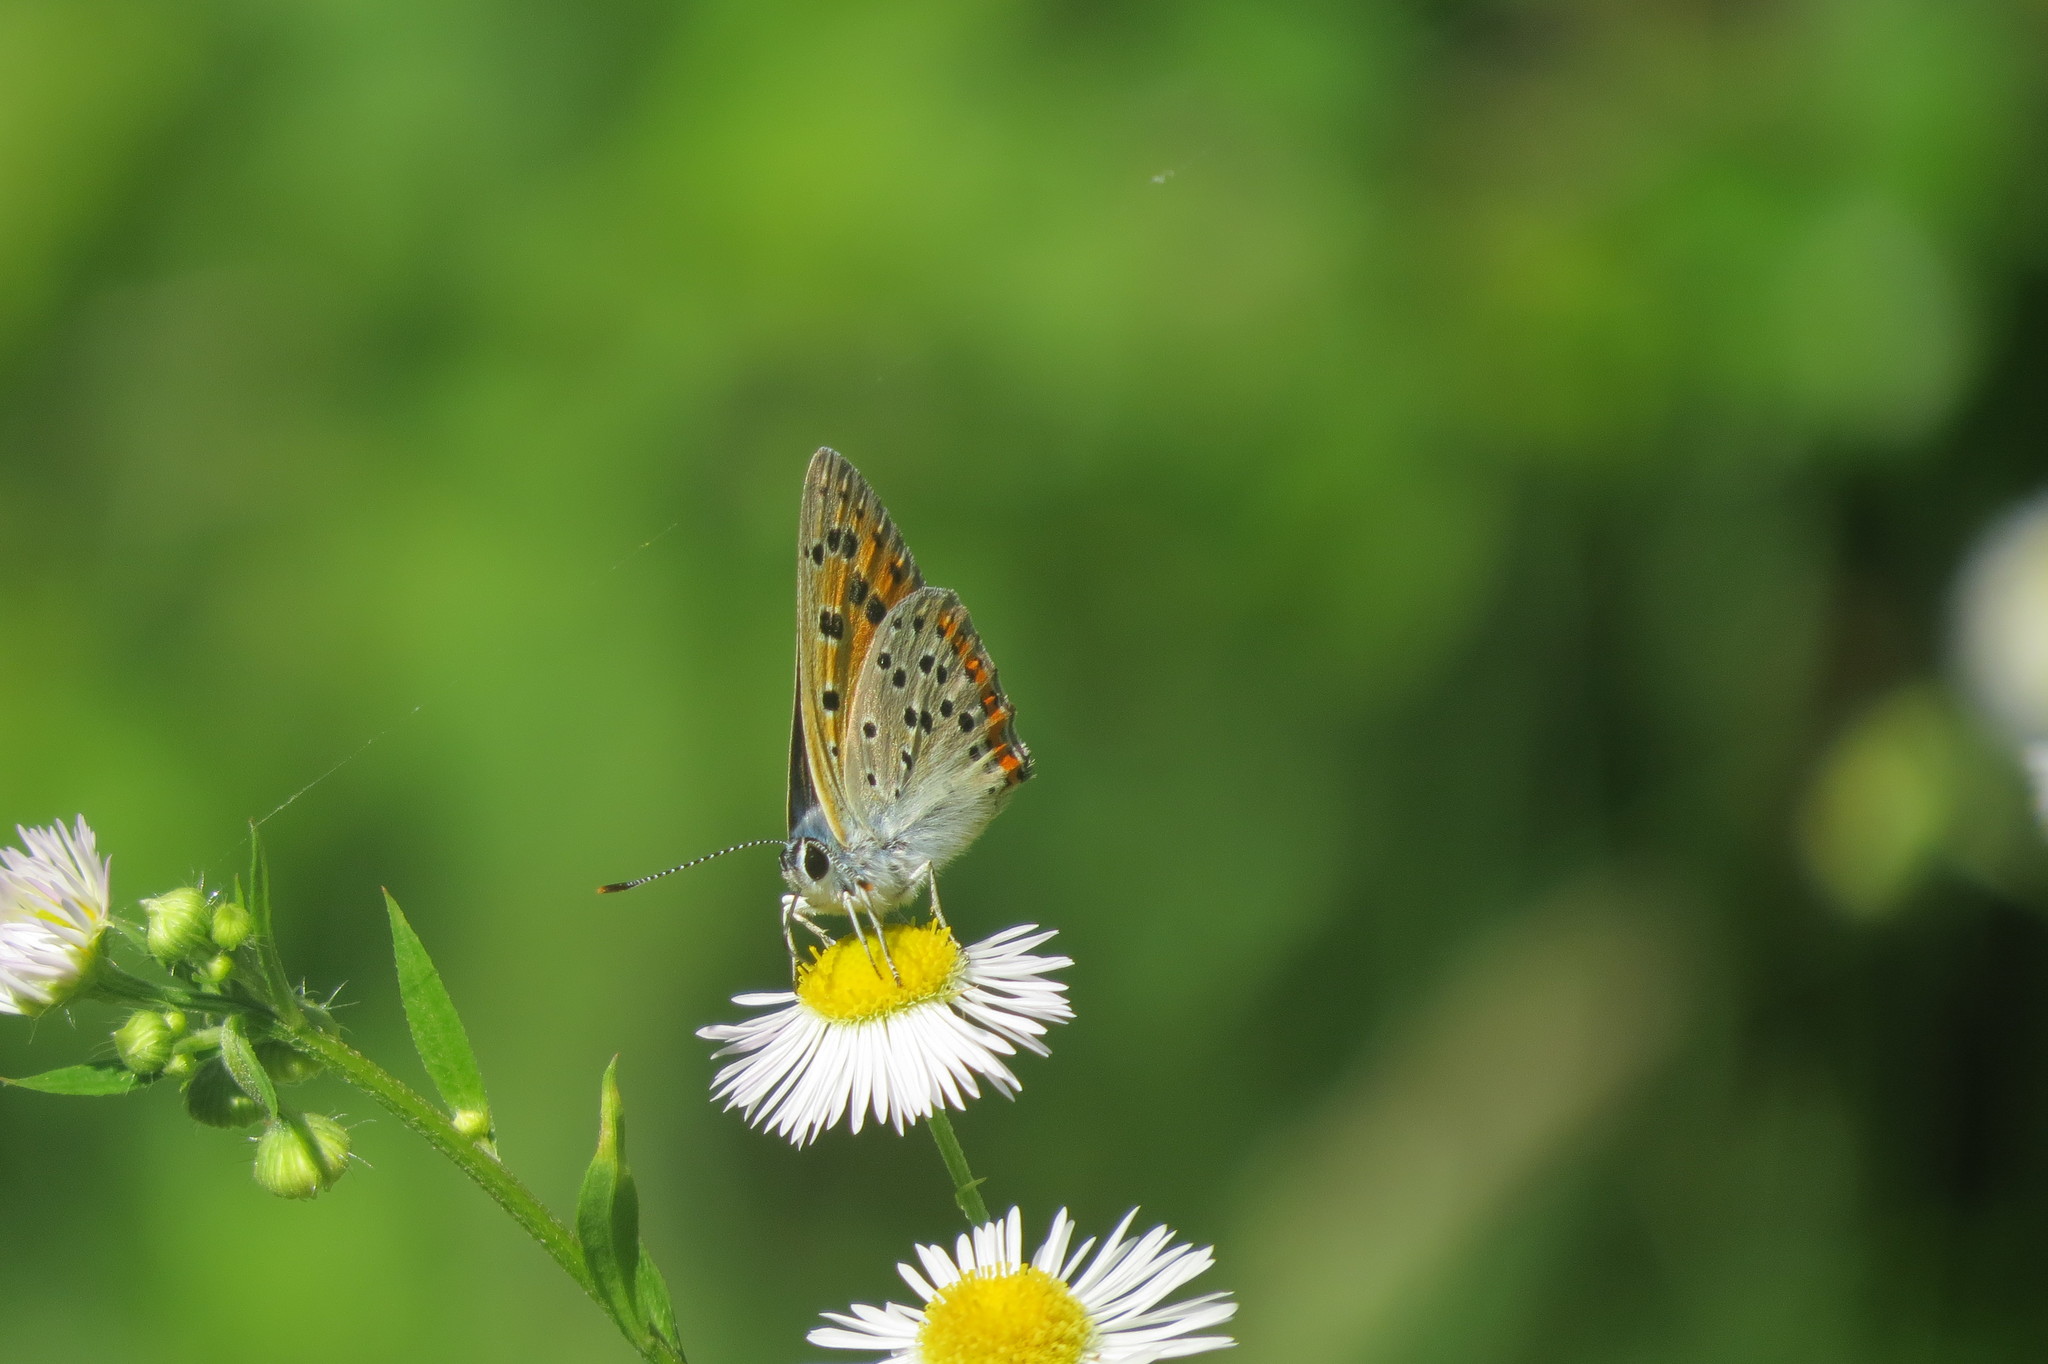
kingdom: Animalia
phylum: Arthropoda
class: Insecta
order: Lepidoptera
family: Lycaenidae
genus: Lycaena
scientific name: Lycaena alciphron
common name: Purple-shot copper
